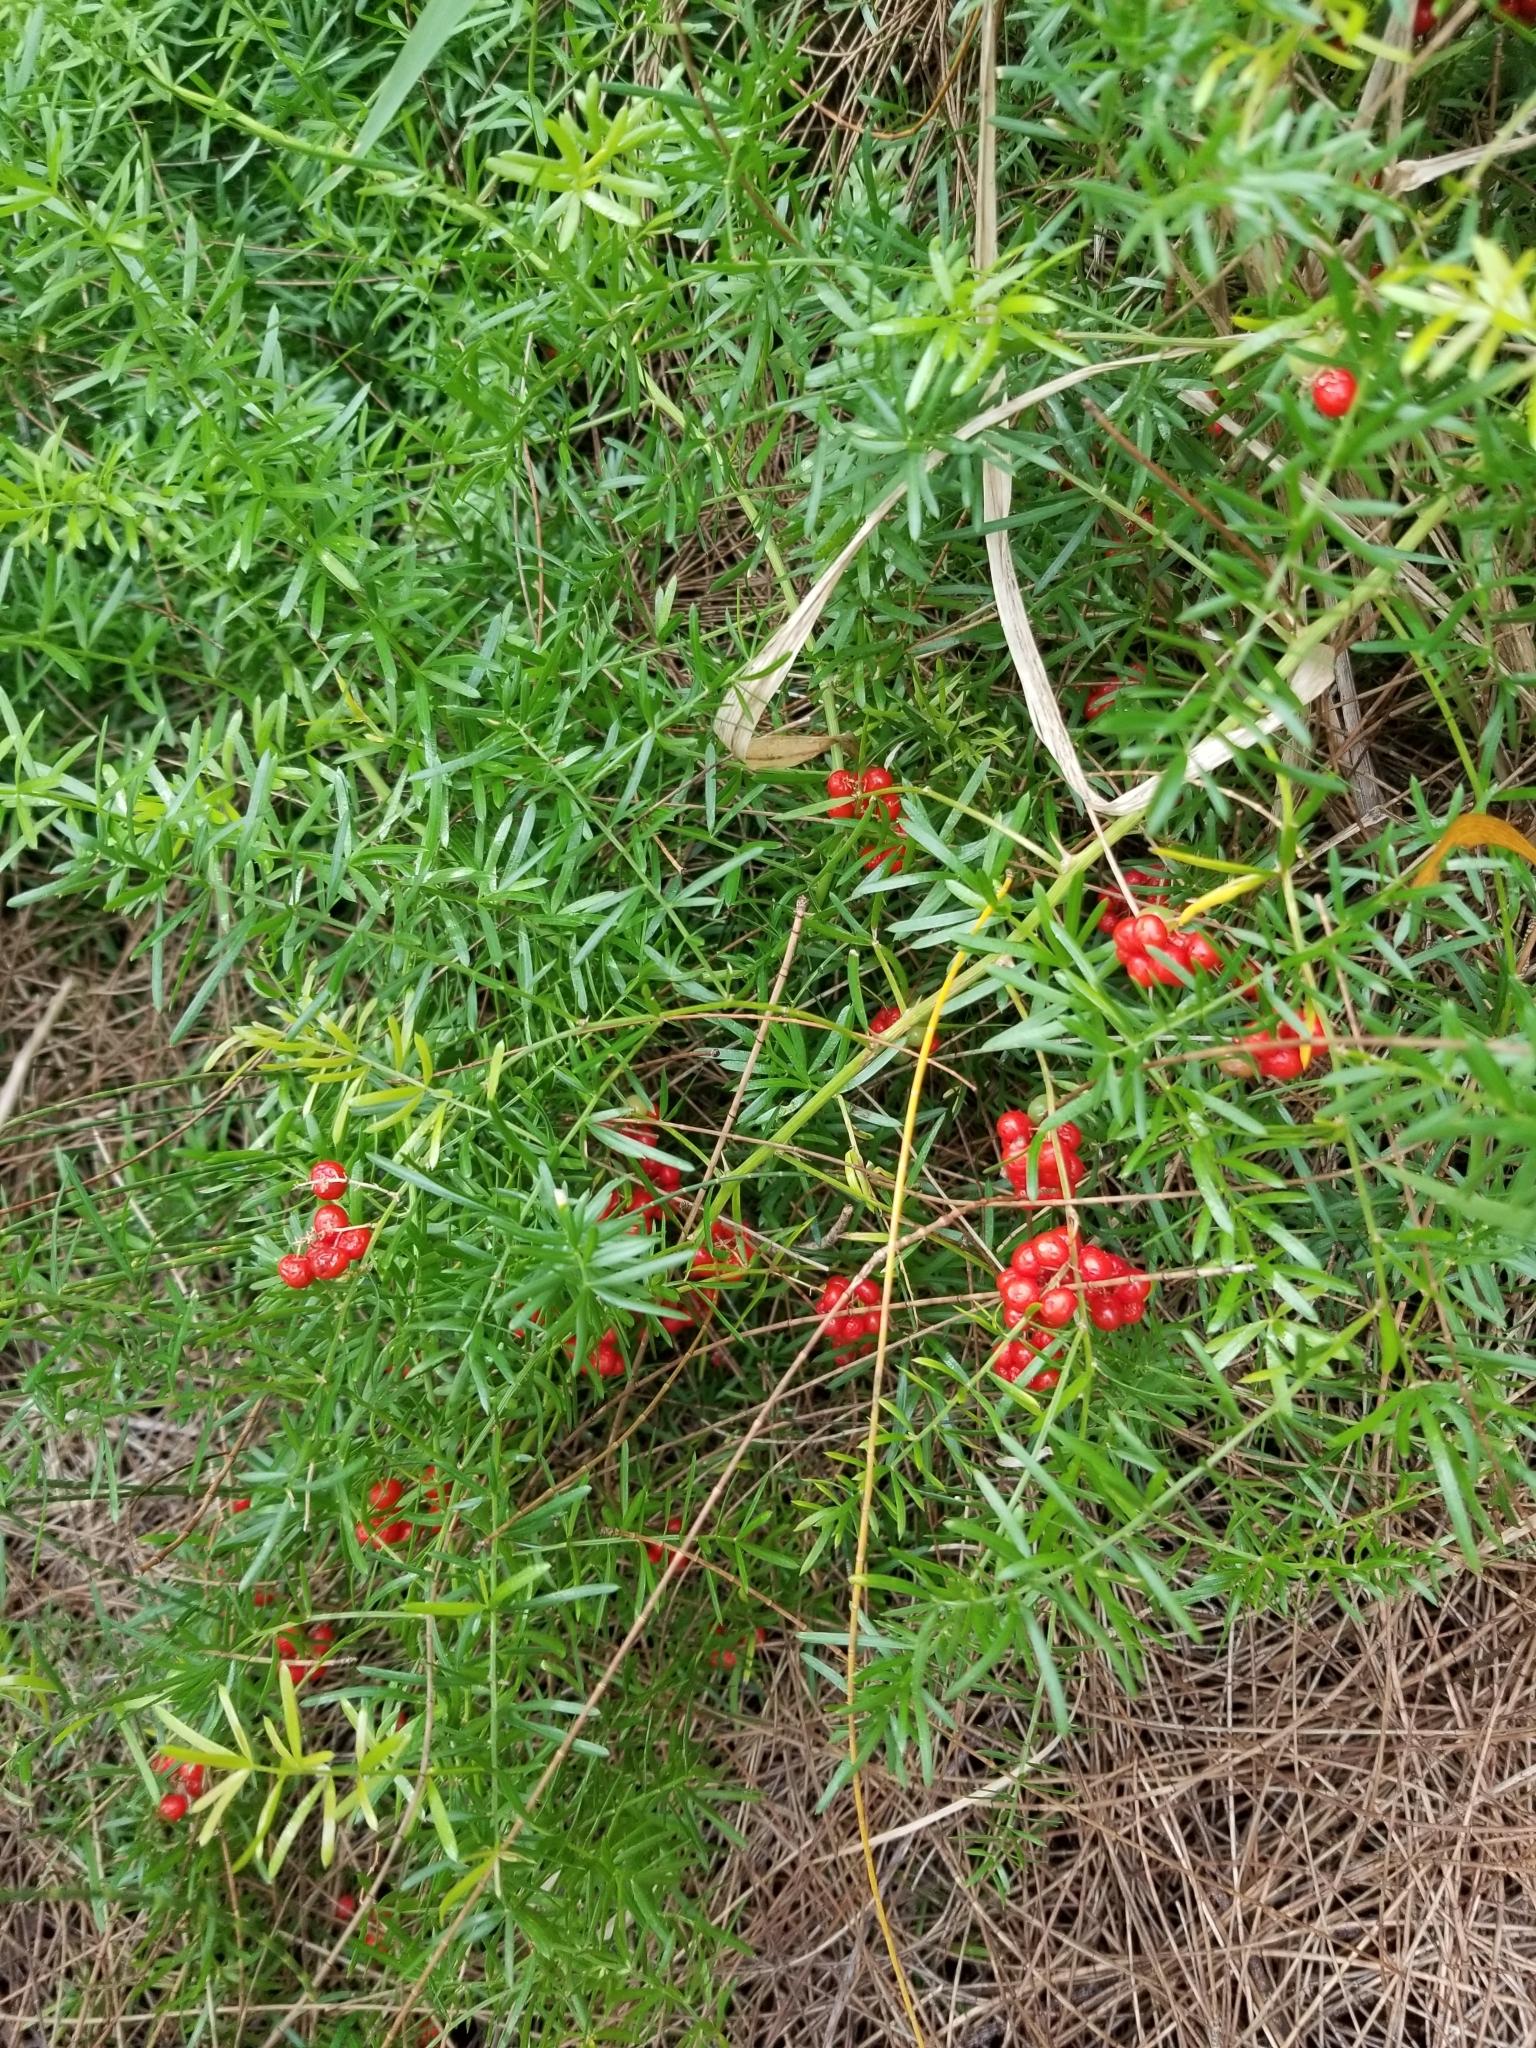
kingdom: Plantae
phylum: Tracheophyta
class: Liliopsida
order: Asparagales
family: Asparagaceae
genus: Asparagus
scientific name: Asparagus aethiopicus
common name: Sprenger's asparagus fern
